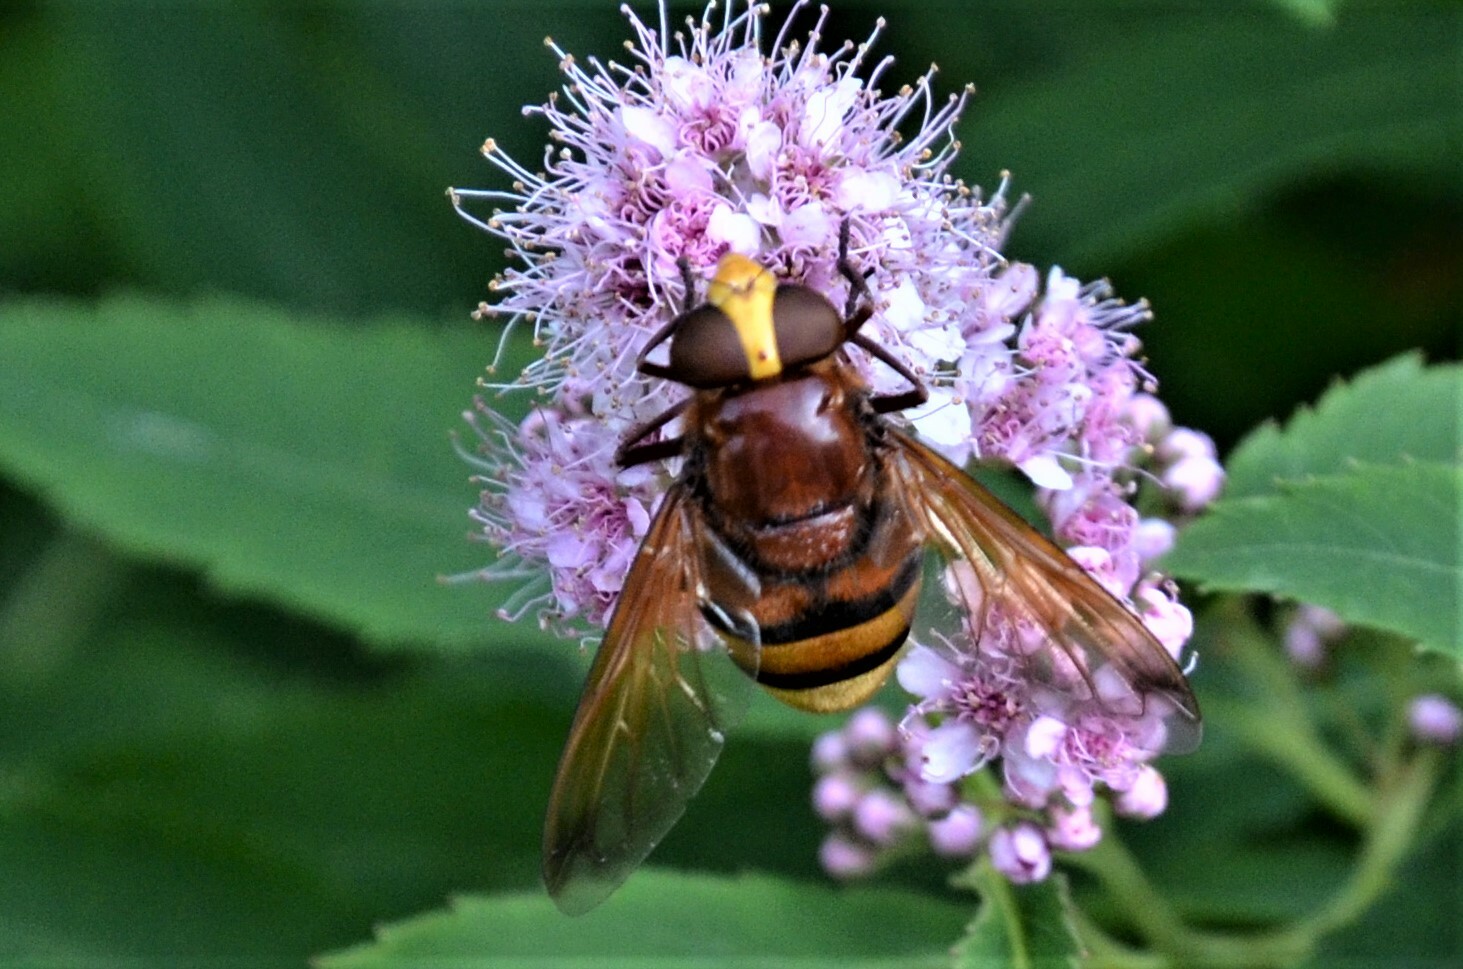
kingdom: Animalia
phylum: Arthropoda
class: Insecta
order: Diptera
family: Syrphidae
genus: Volucella
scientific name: Volucella zonaria
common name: Hornet hoverfly
